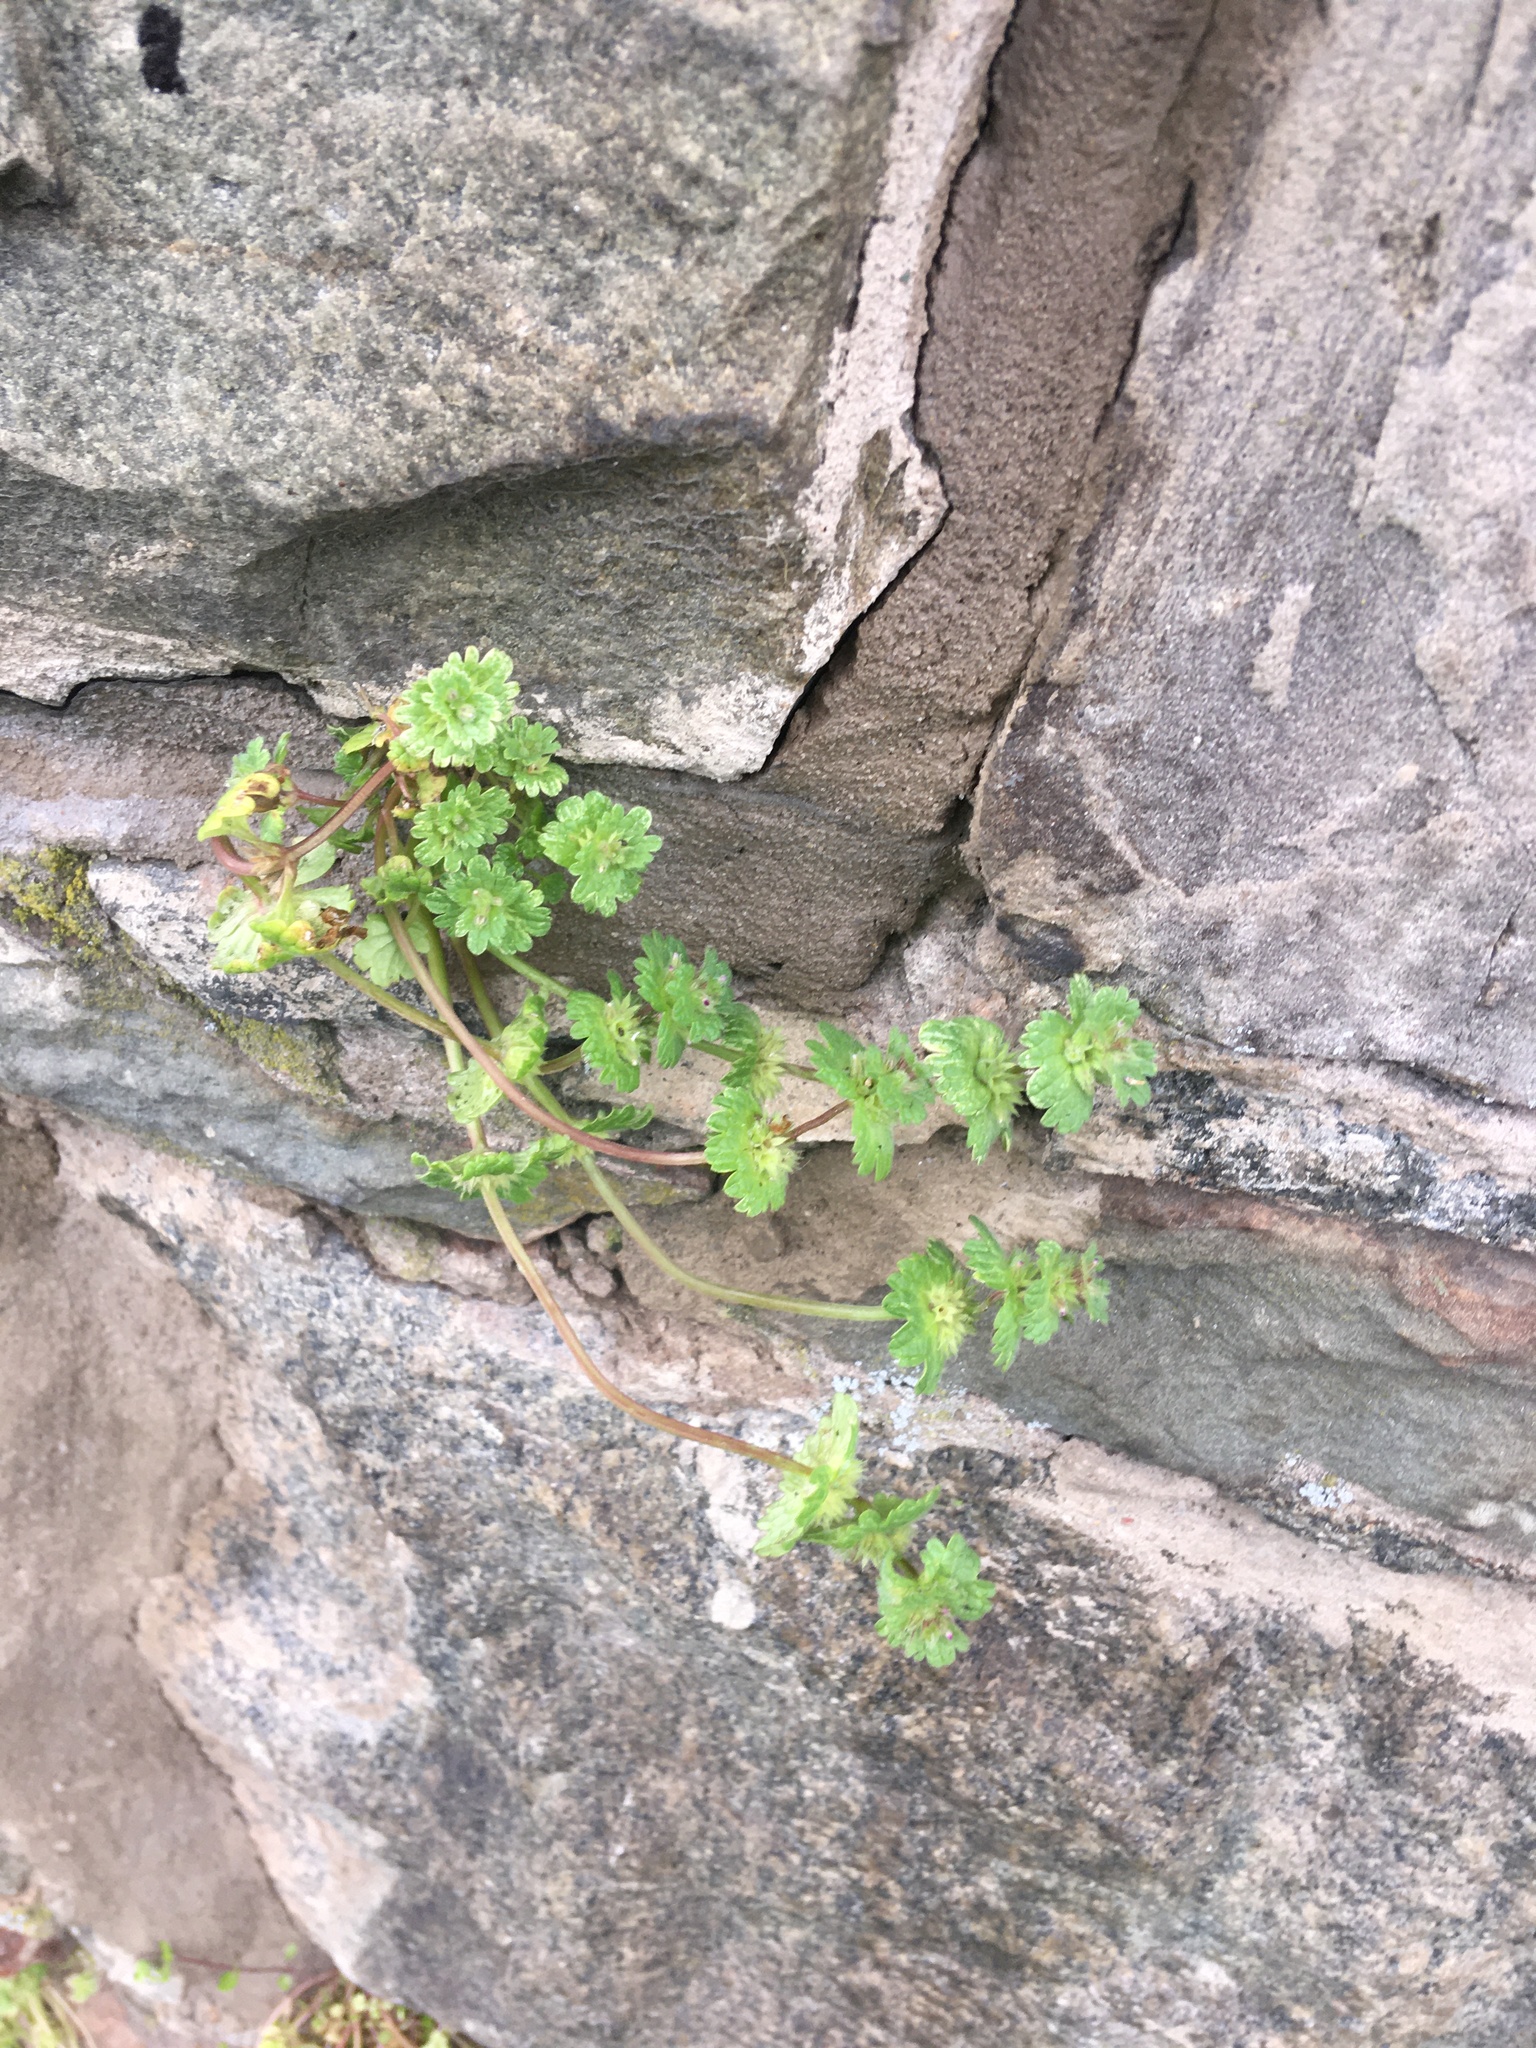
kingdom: Plantae
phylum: Tracheophyta
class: Magnoliopsida
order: Lamiales
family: Lamiaceae
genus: Lamium
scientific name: Lamium amplexicaule
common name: Henbit dead-nettle
